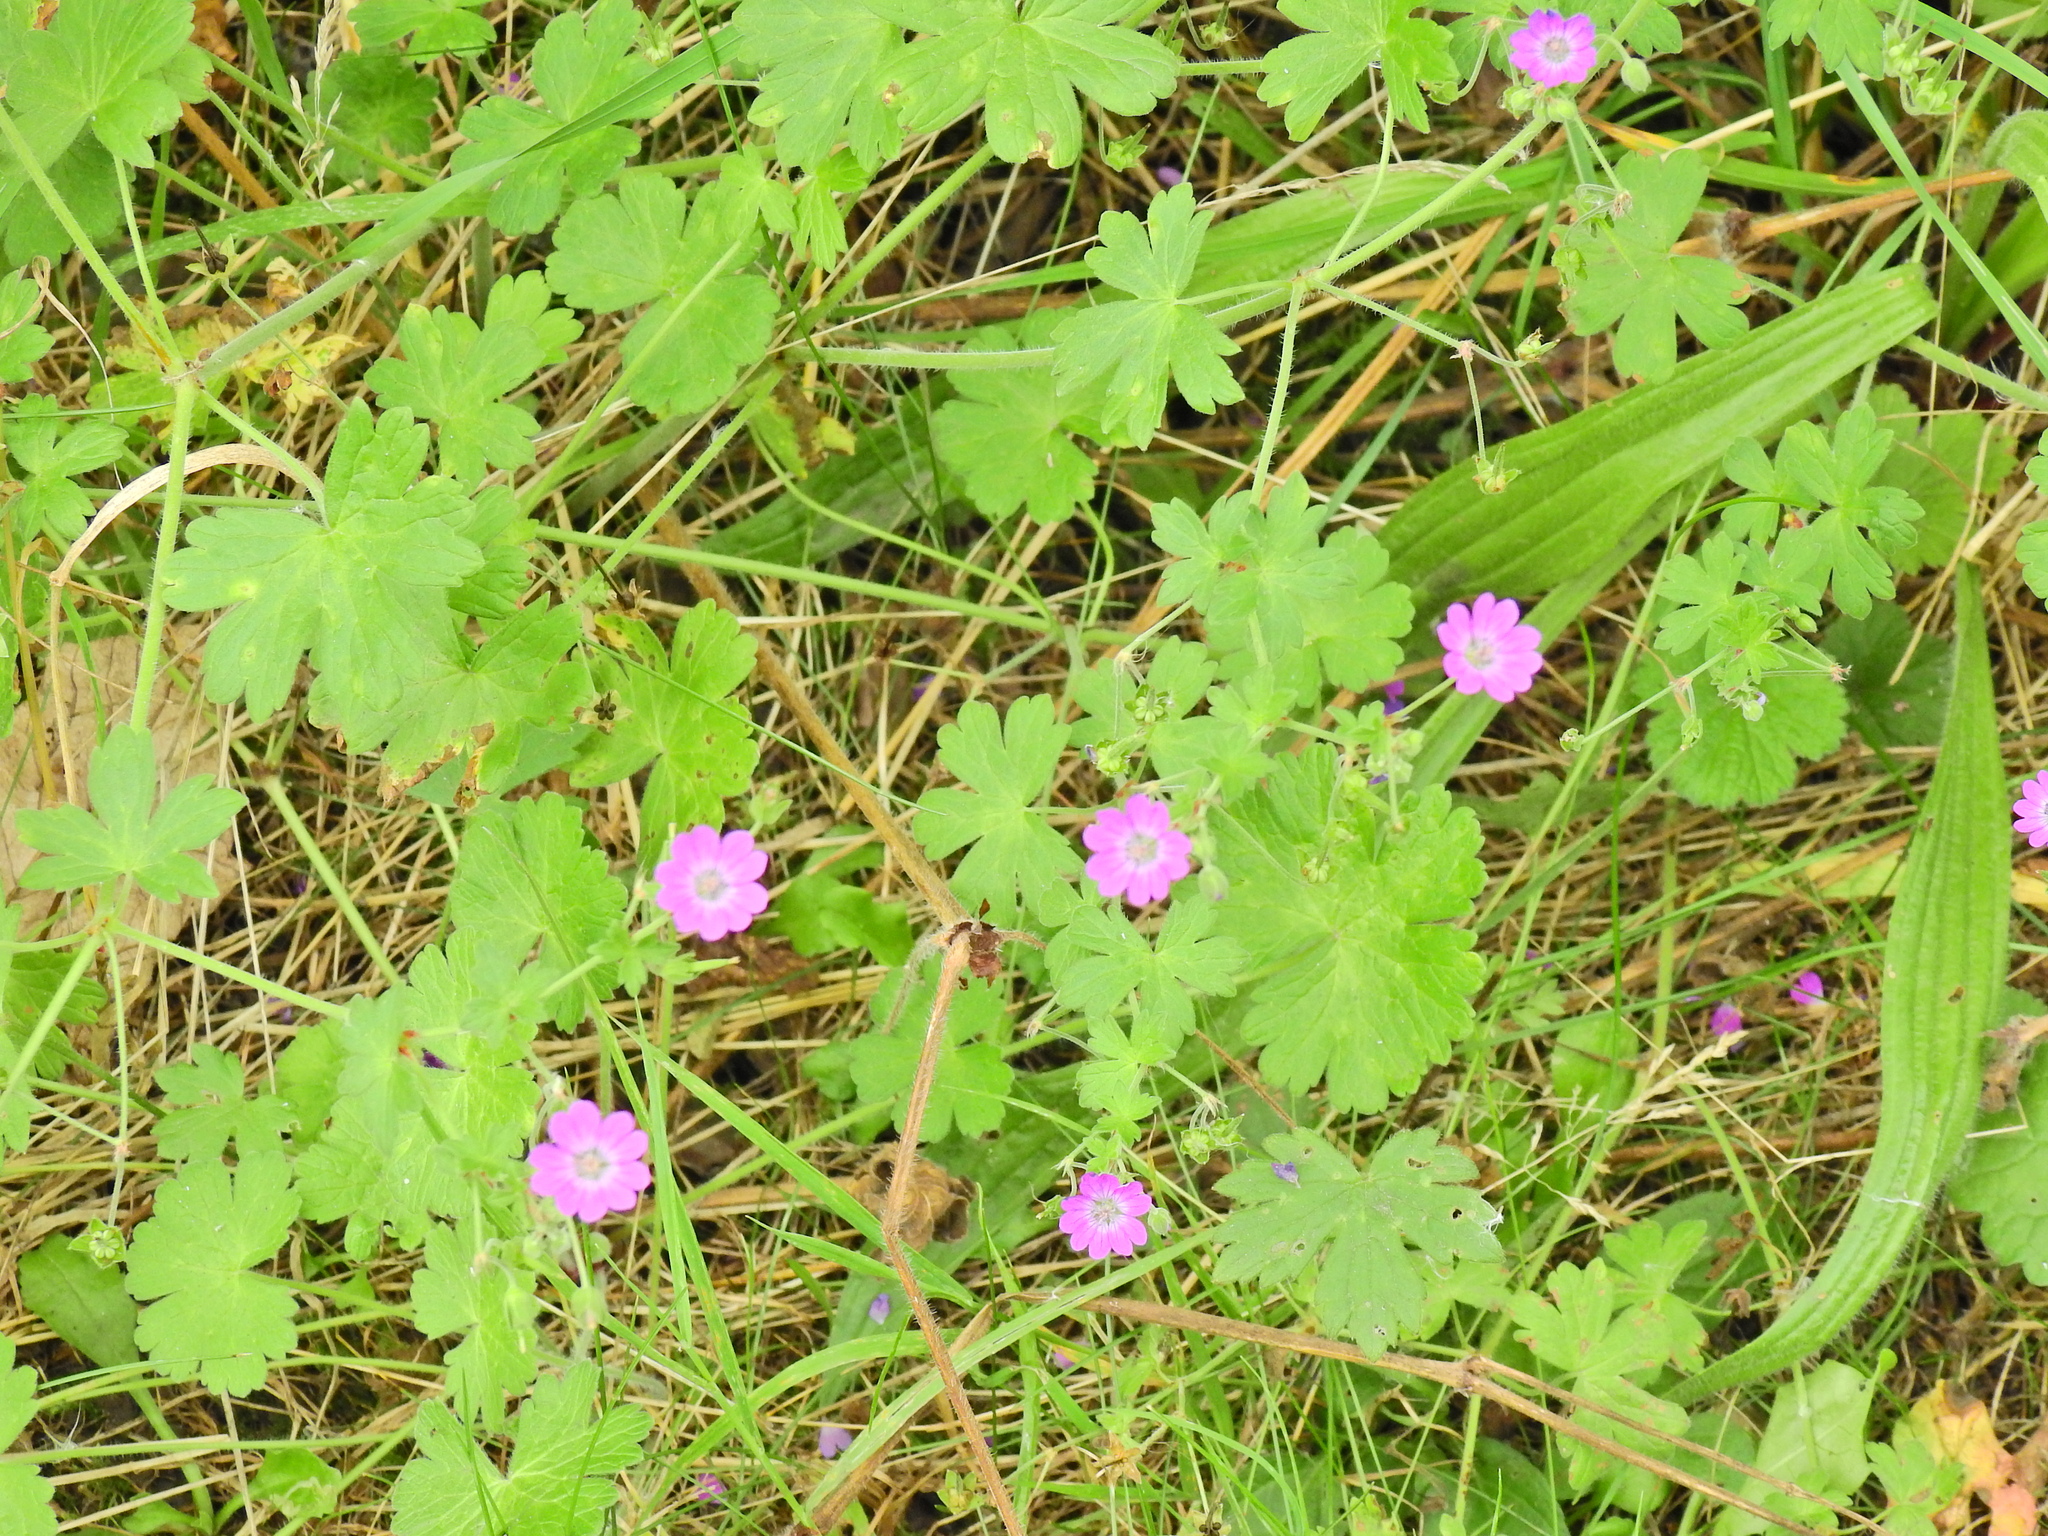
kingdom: Plantae
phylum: Tracheophyta
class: Magnoliopsida
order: Geraniales
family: Geraniaceae
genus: Geranium
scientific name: Geranium pyrenaicum
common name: Hedgerow crane's-bill
